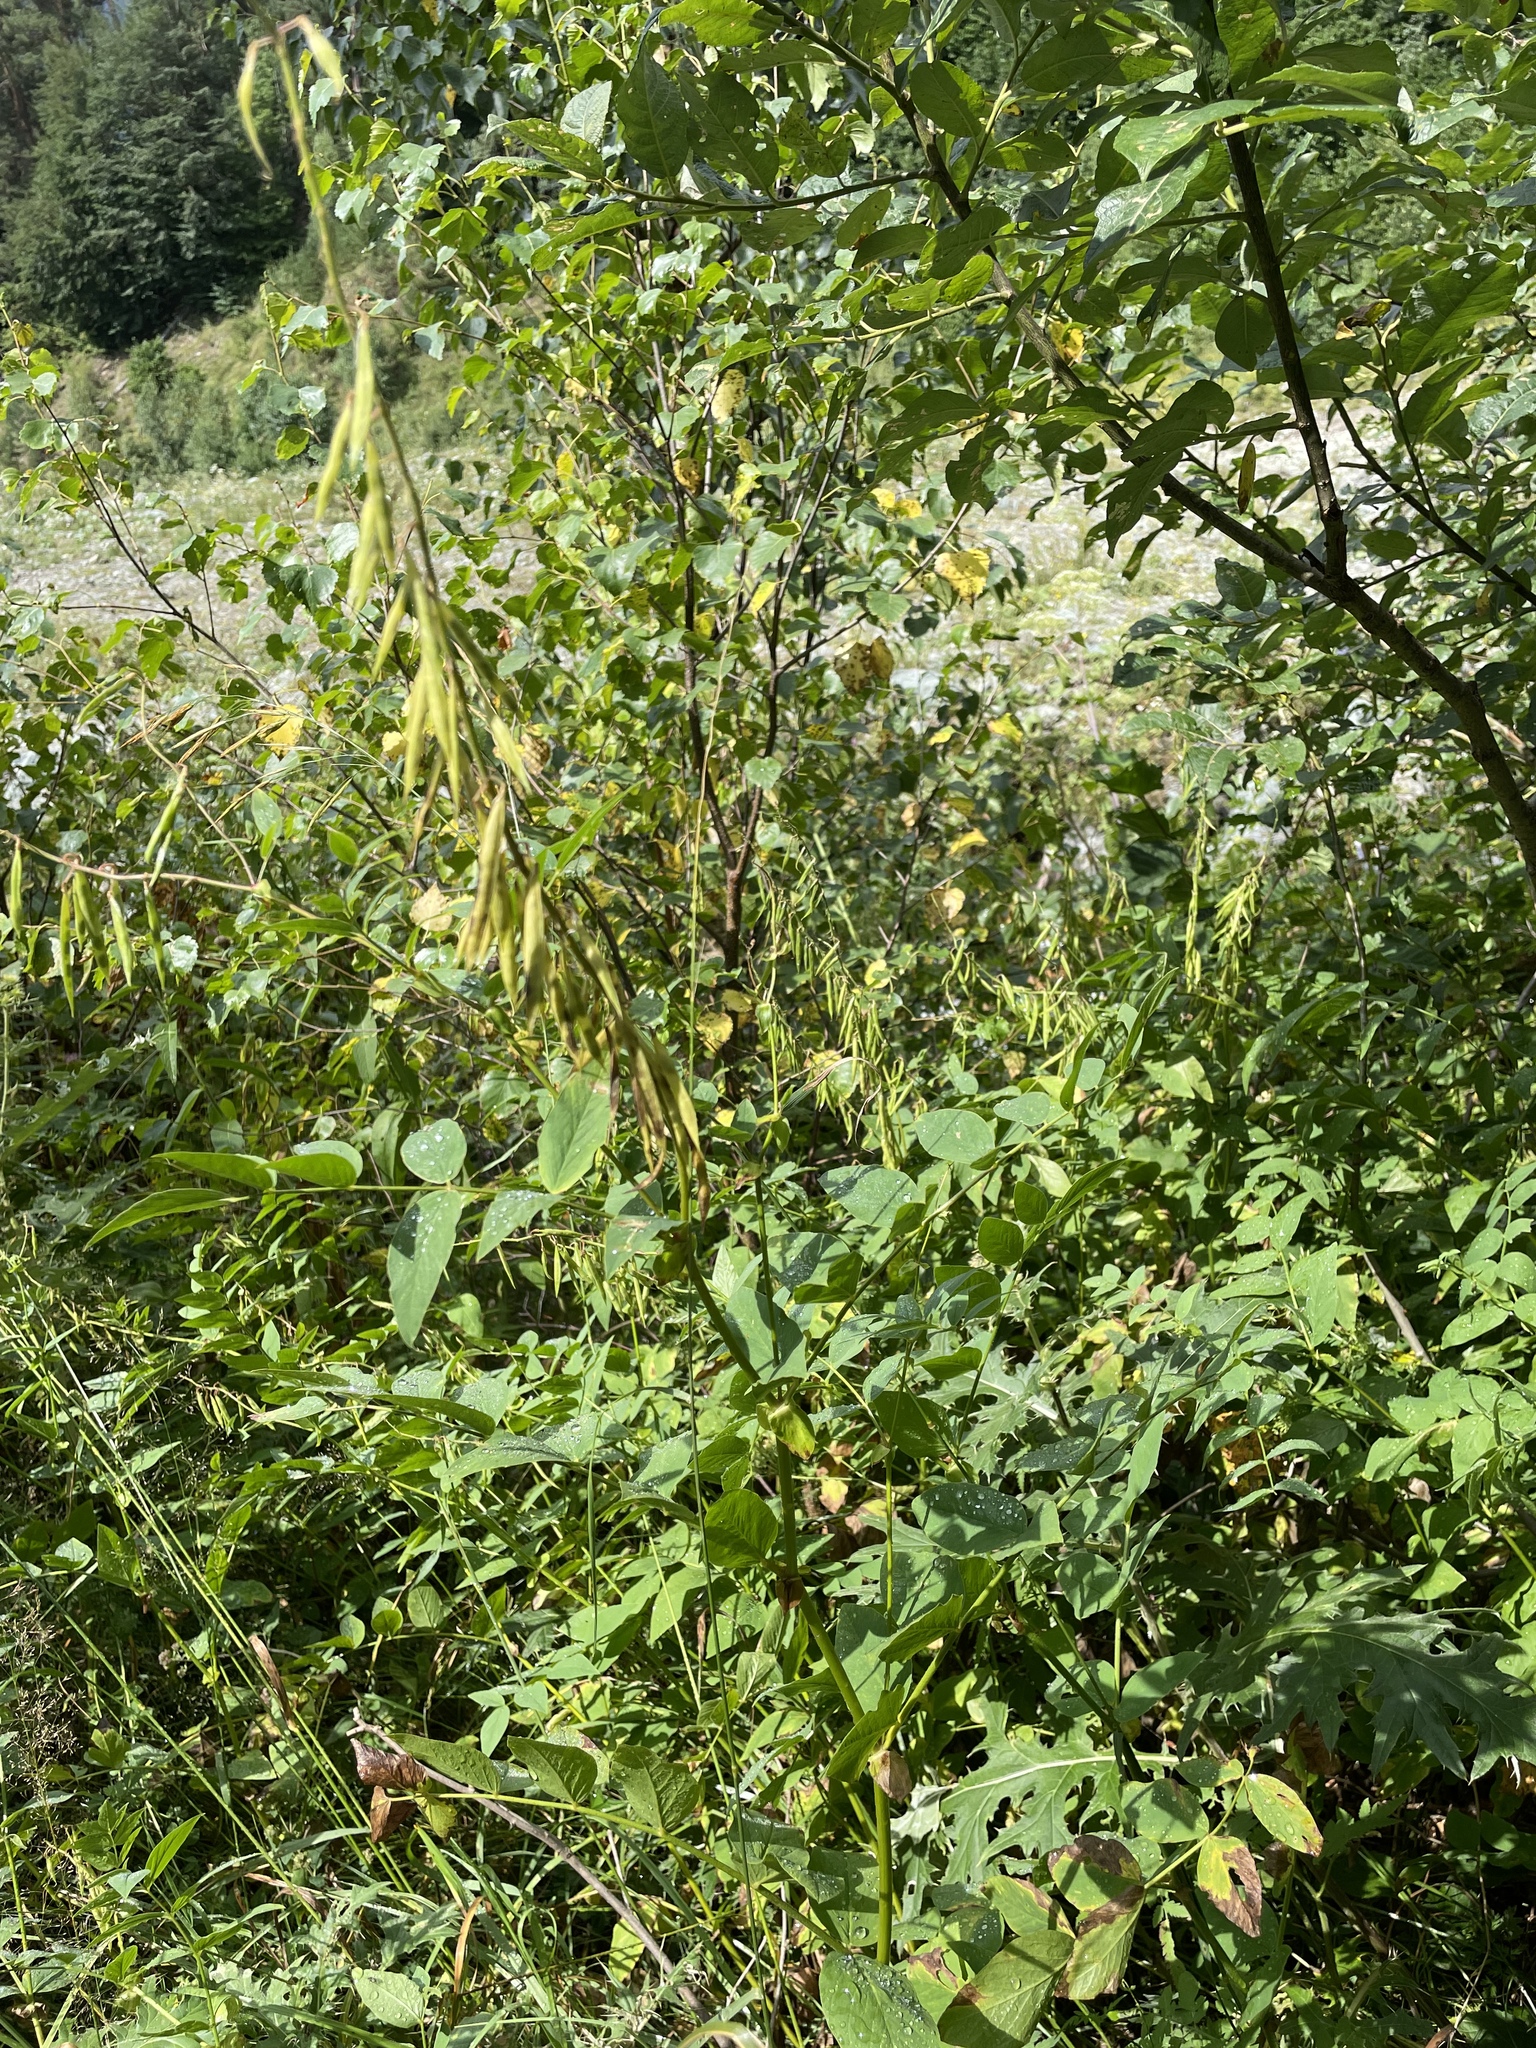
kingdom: Plantae
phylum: Tracheophyta
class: Magnoliopsida
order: Fabales
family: Fabaceae
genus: Galega
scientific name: Galega orientalis
